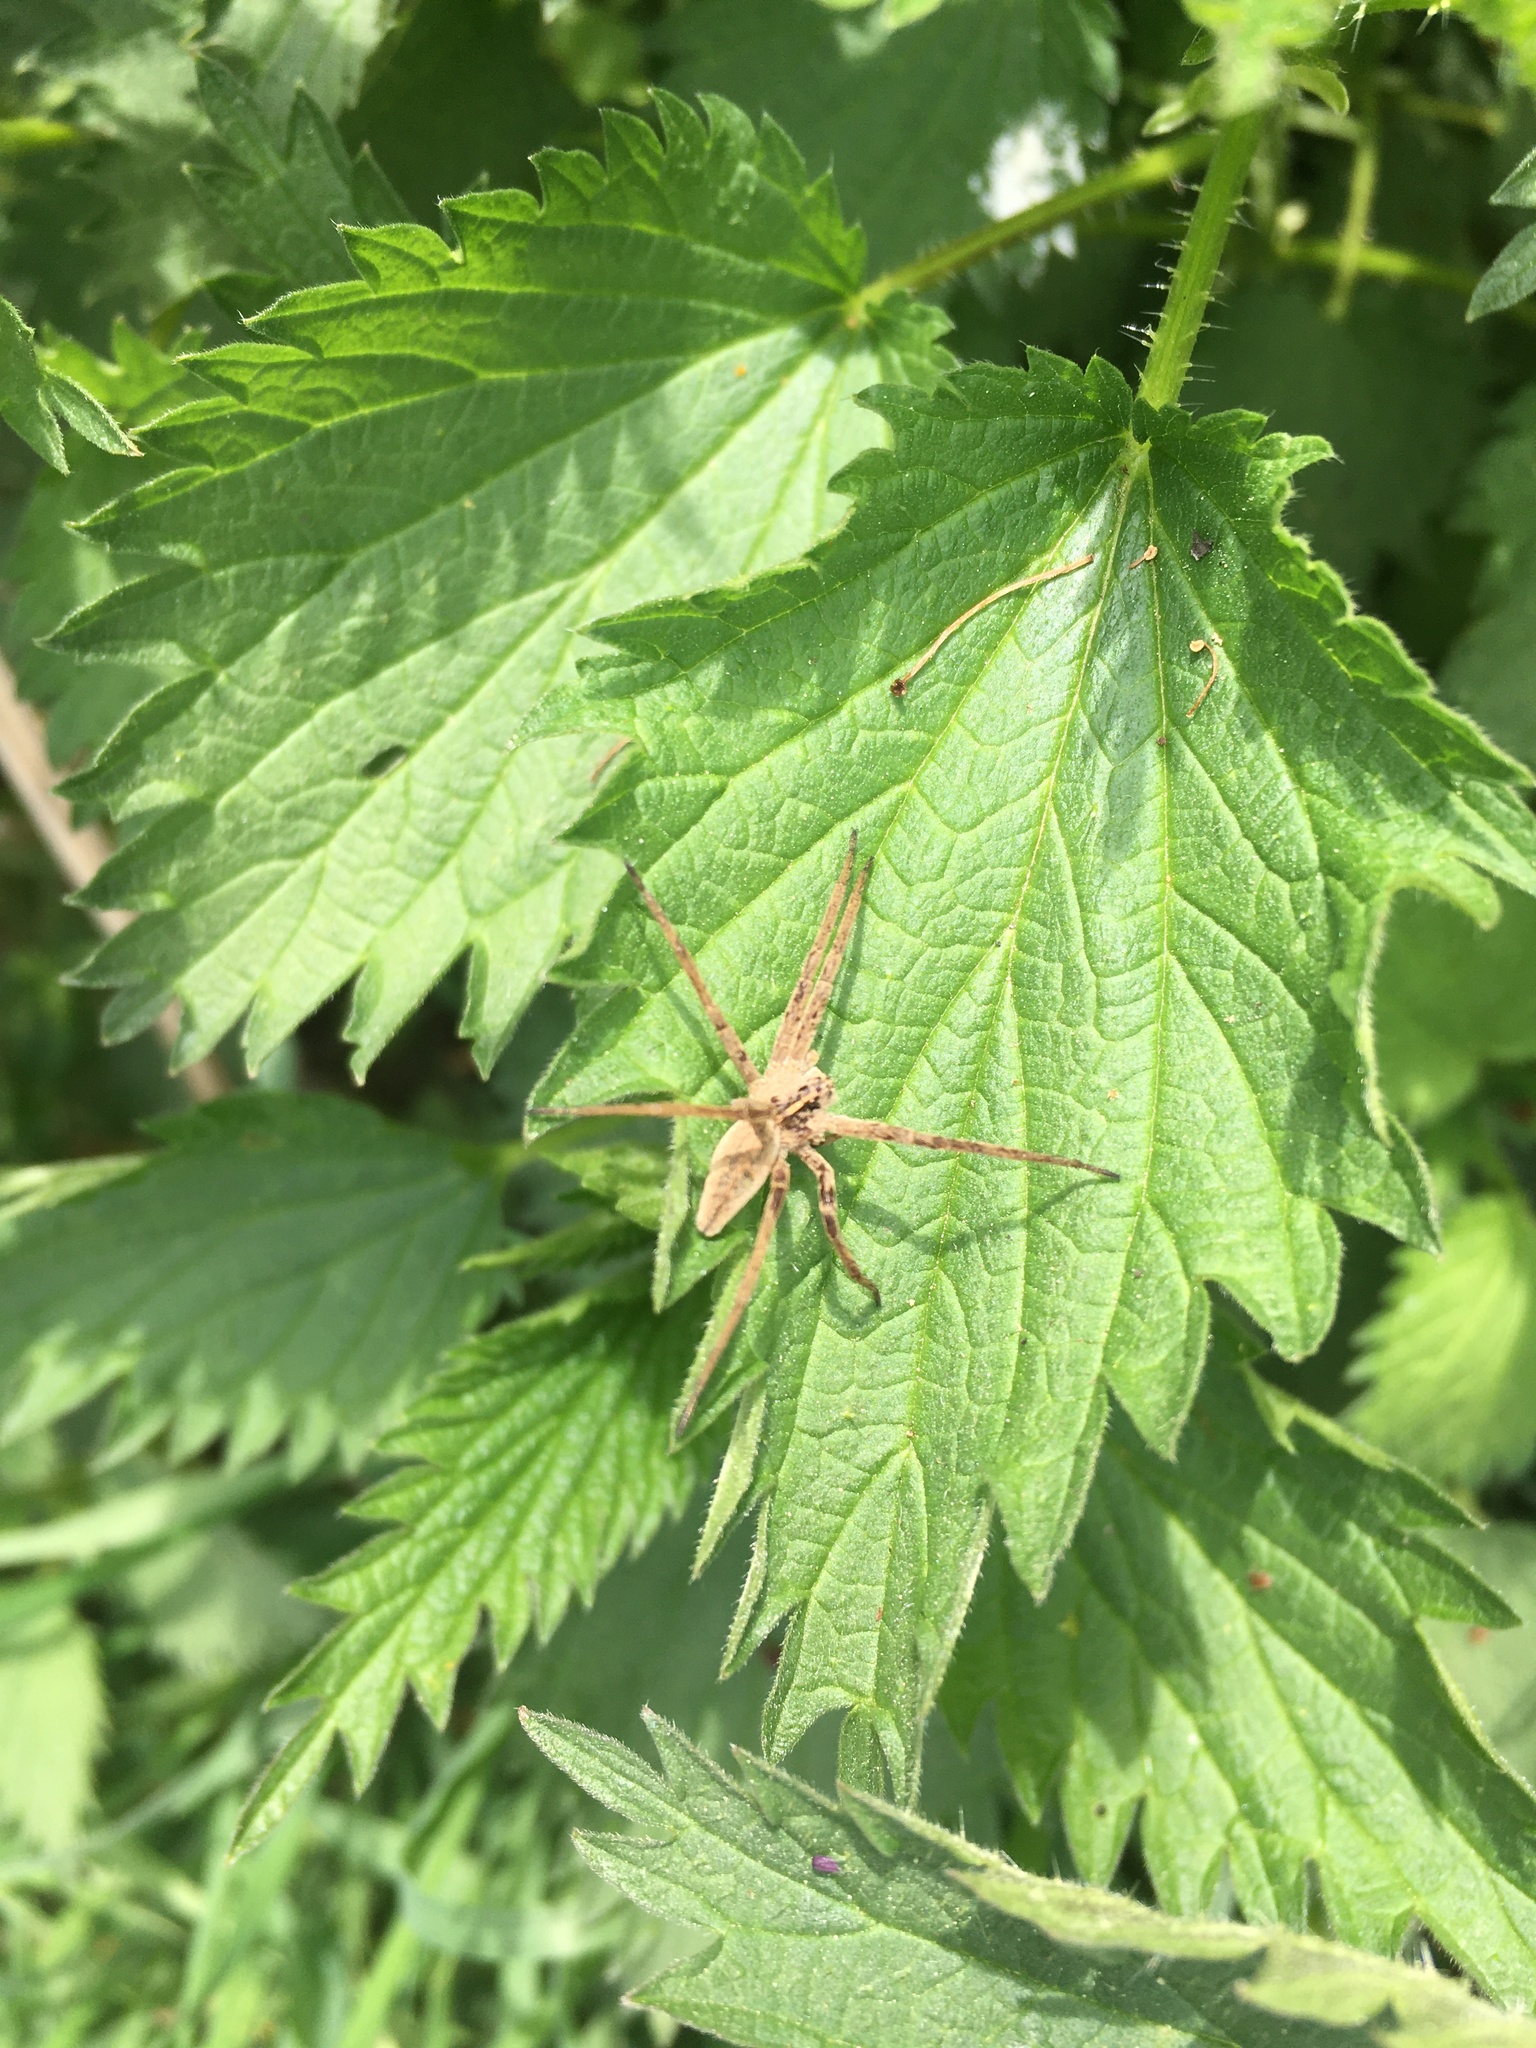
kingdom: Animalia
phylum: Arthropoda
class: Arachnida
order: Araneae
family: Pisauridae
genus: Pisaura
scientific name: Pisaura mirabilis
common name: Tent spider
